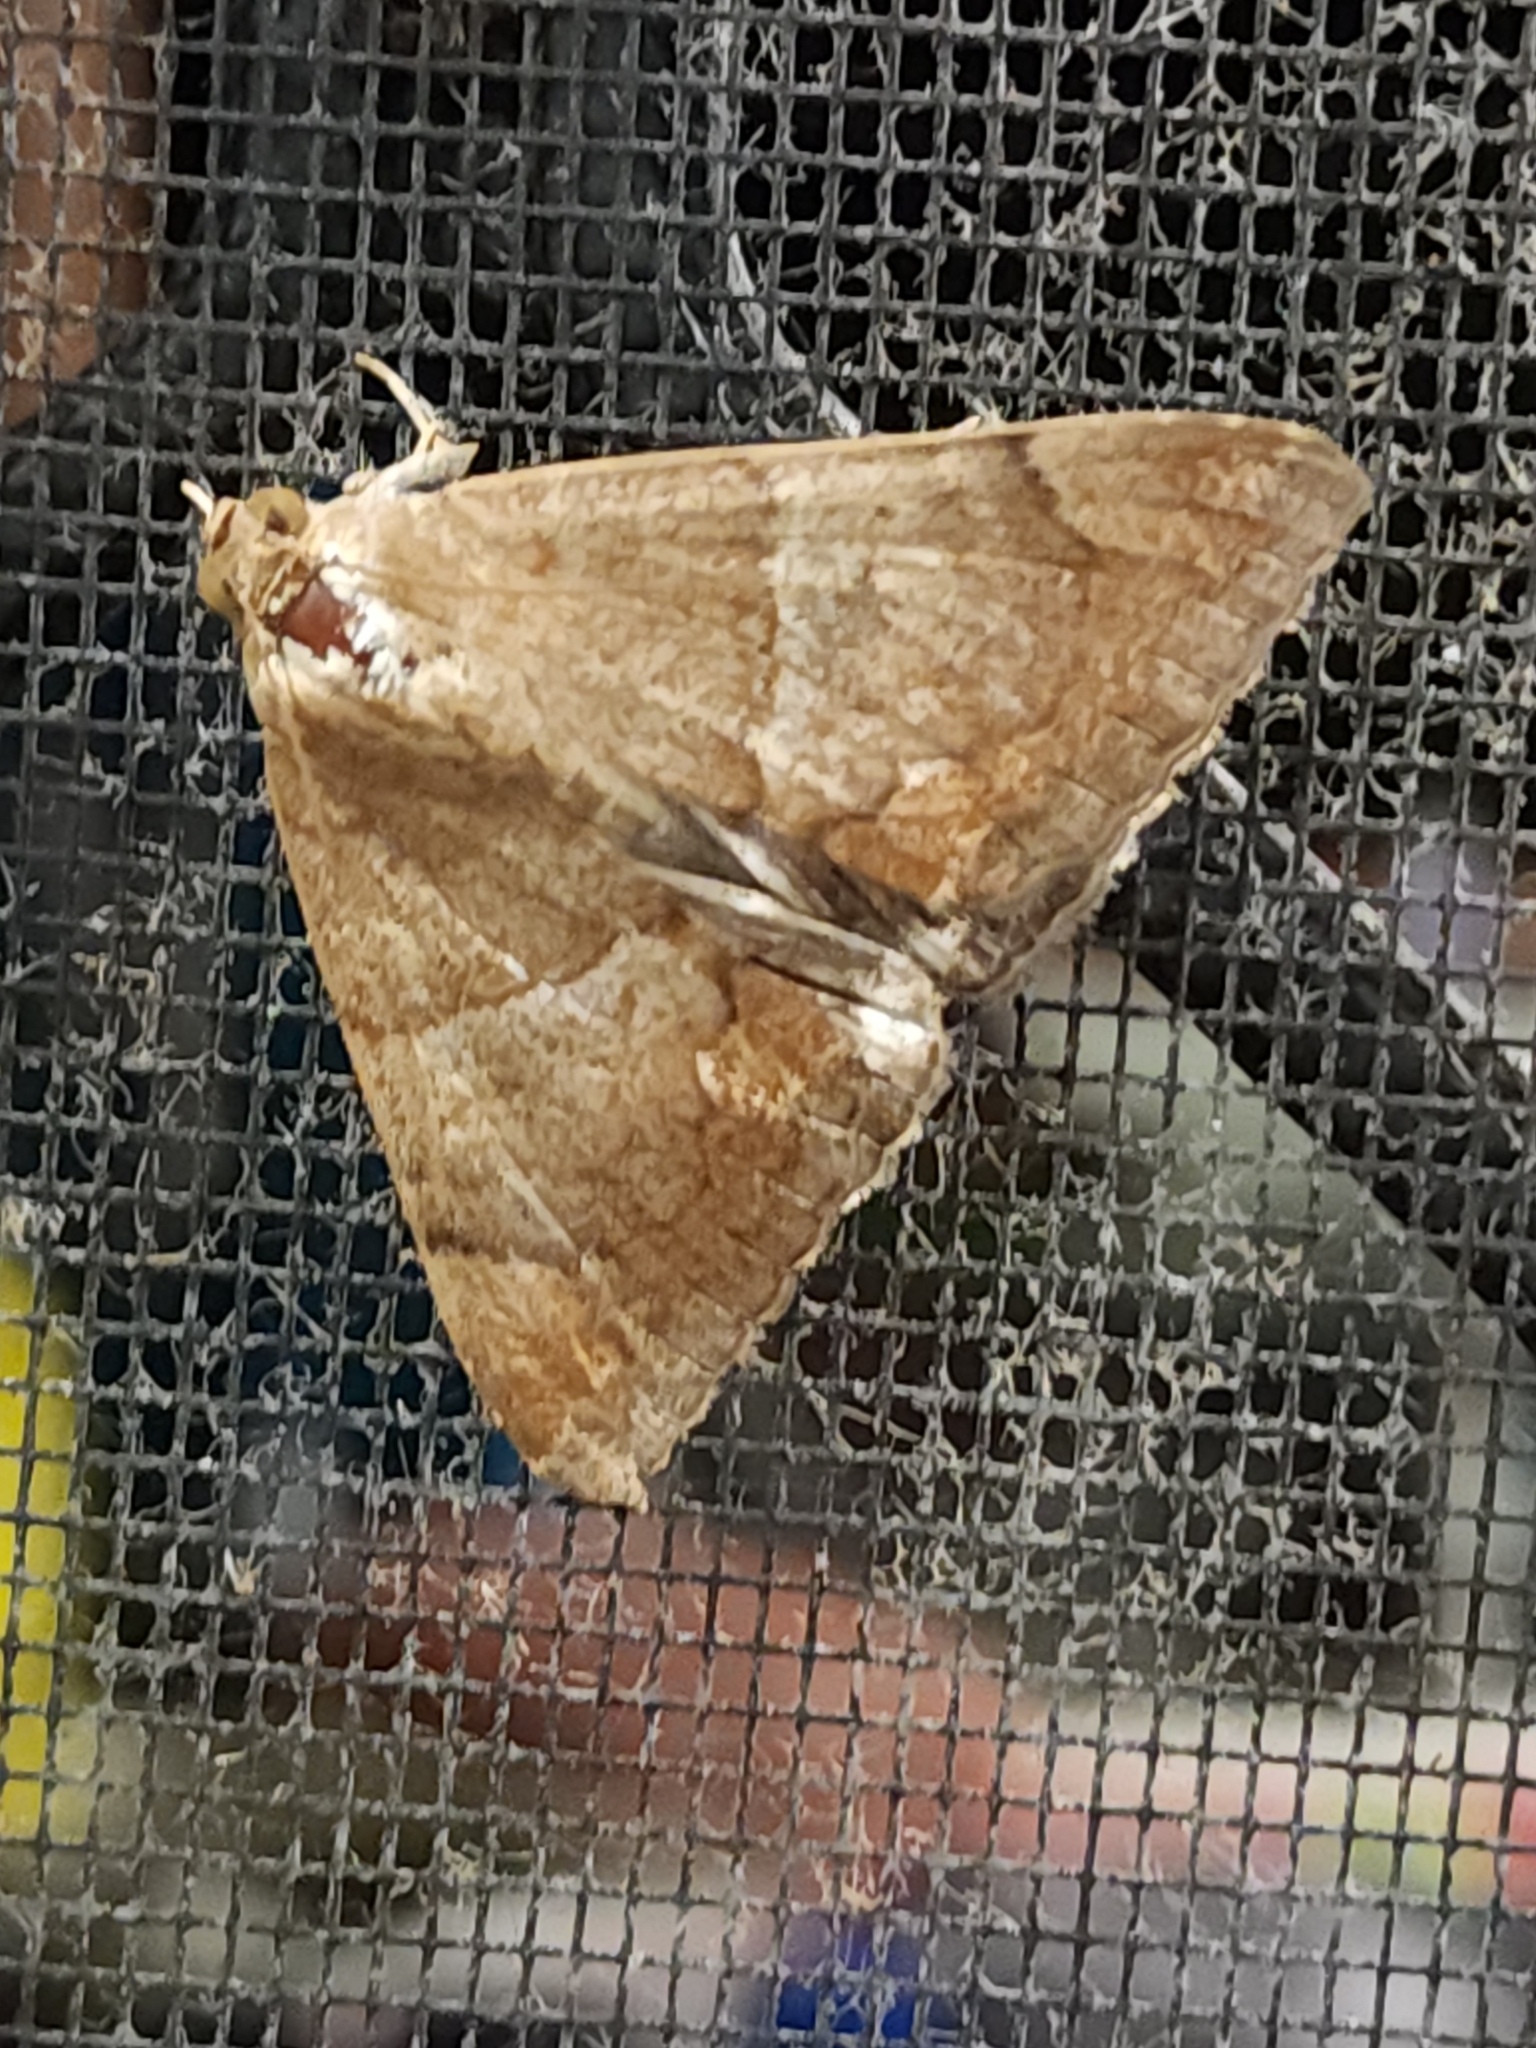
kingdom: Animalia
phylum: Arthropoda
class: Insecta
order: Lepidoptera
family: Erebidae
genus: Achaea
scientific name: Achaea janata
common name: Croton caterpillar
